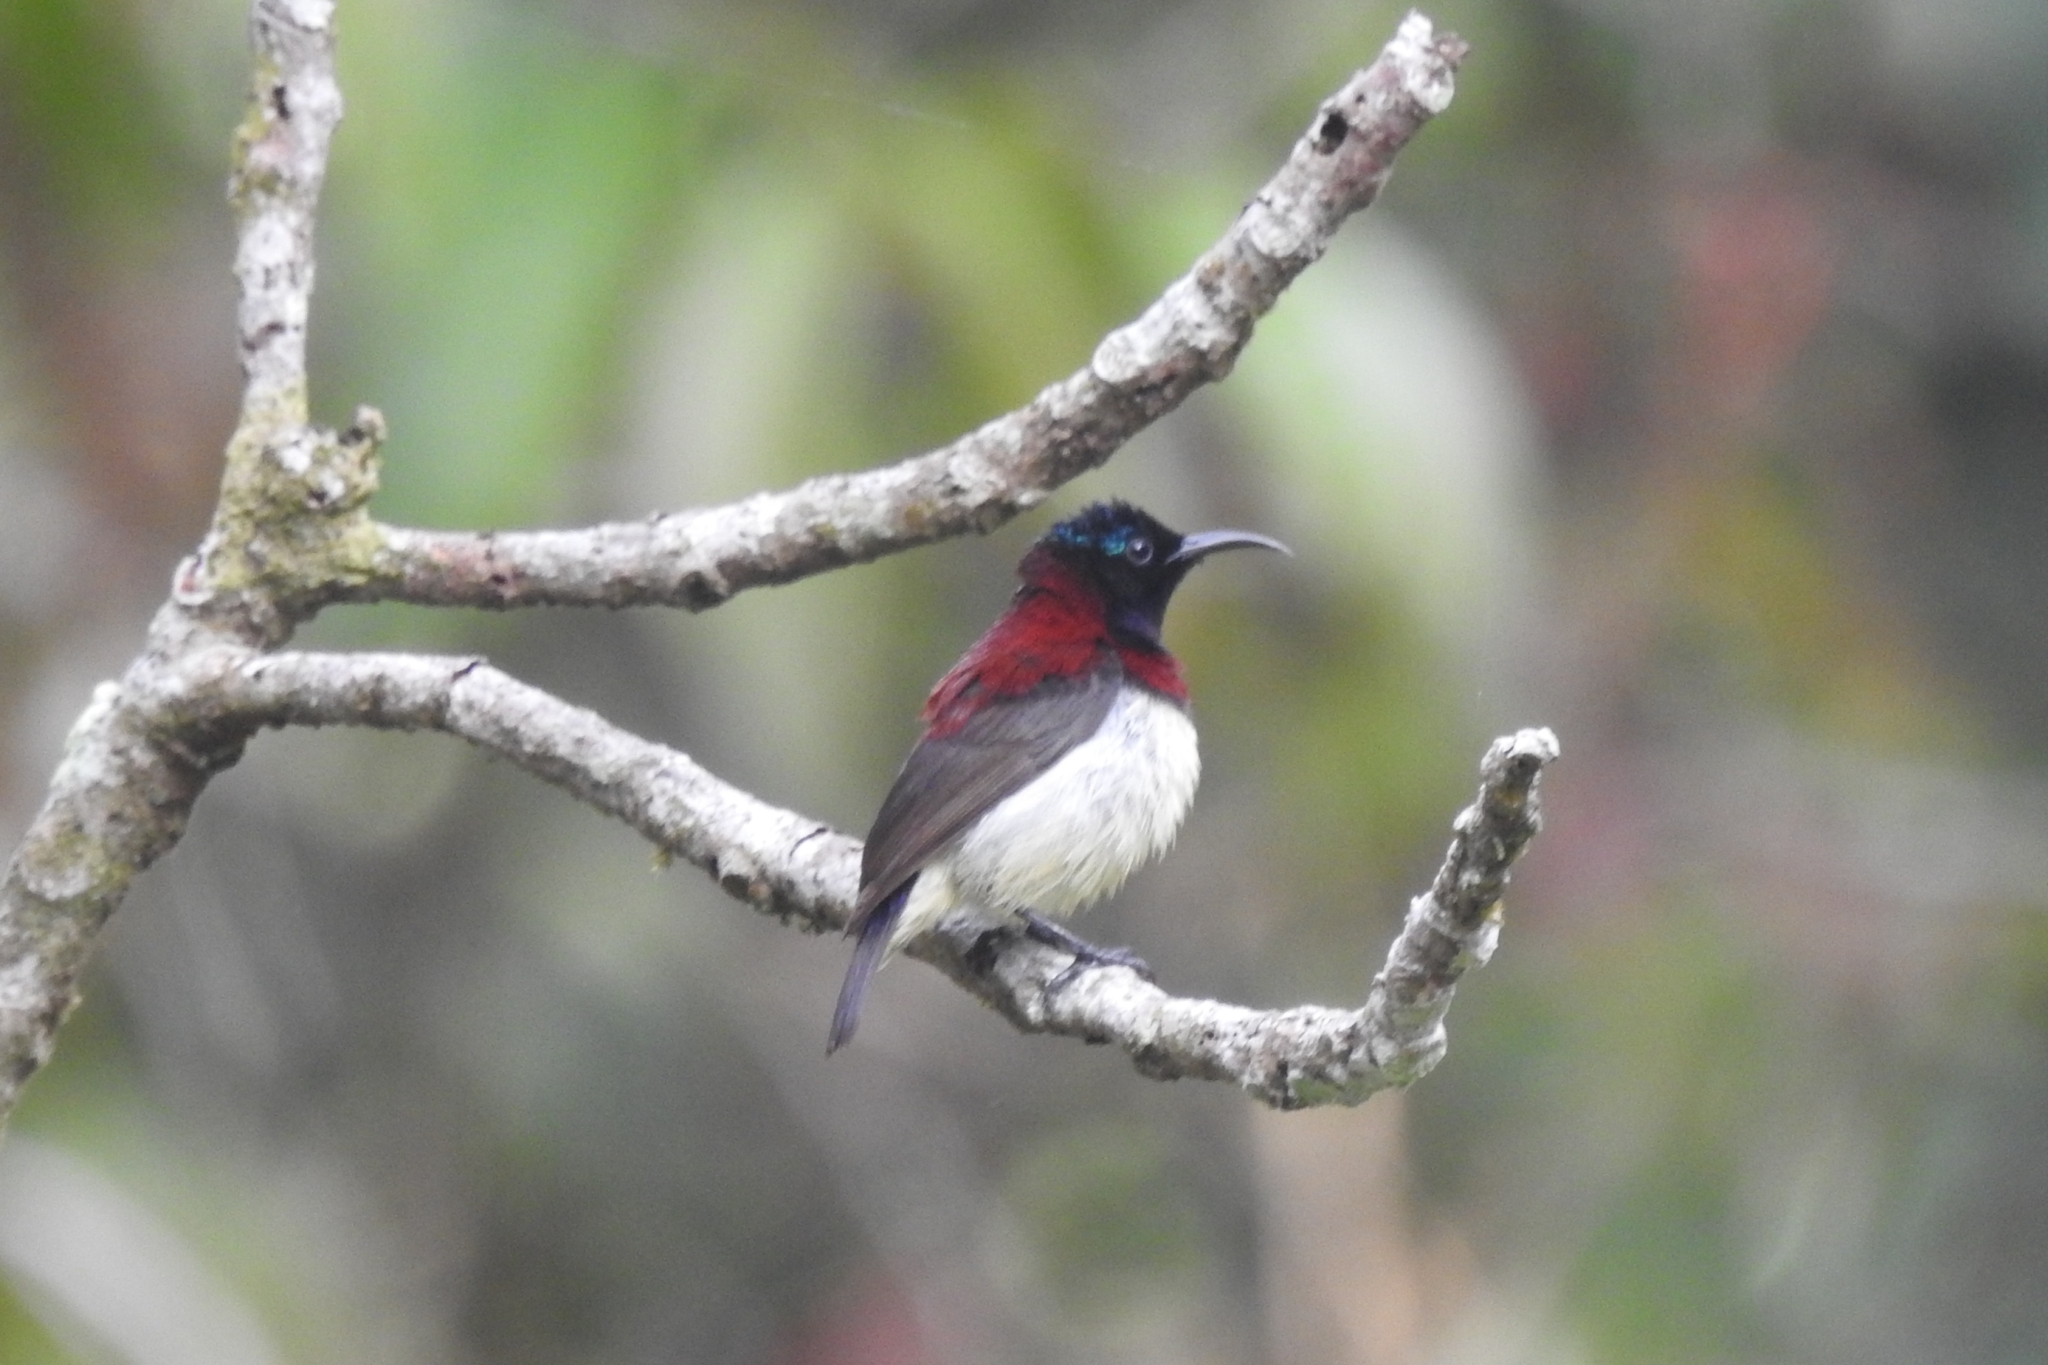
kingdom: Animalia
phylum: Chordata
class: Aves
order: Passeriformes
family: Nectariniidae
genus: Leptocoma
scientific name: Leptocoma minima
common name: Crimson-backed sunbird
